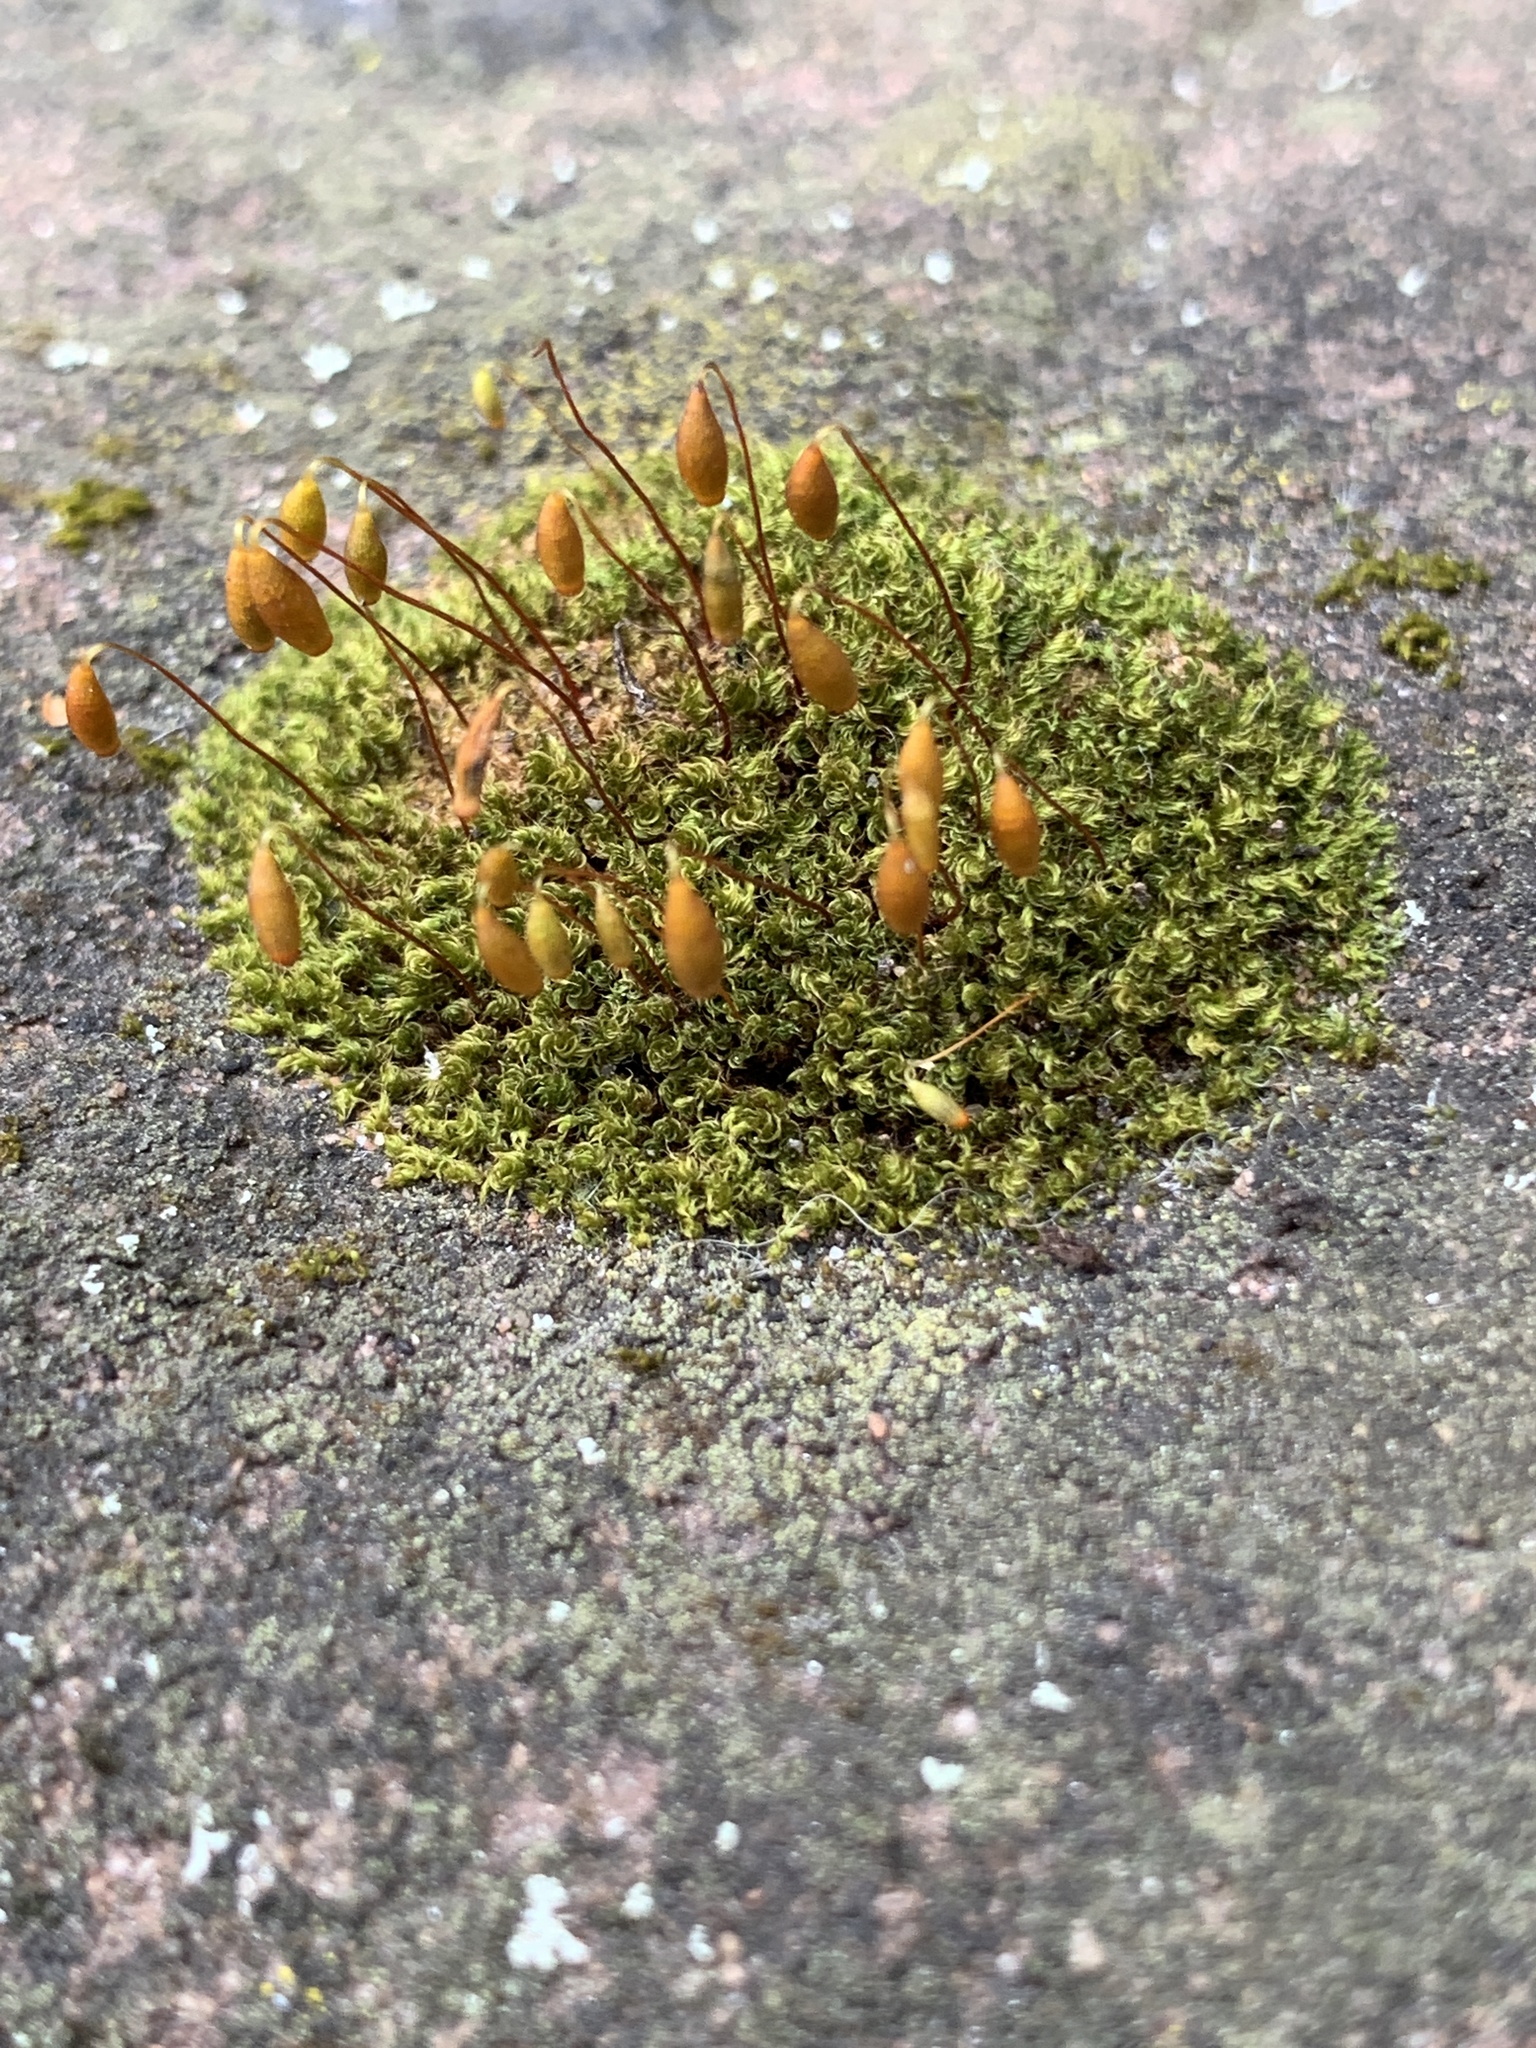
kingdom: Plantae
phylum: Bryophyta
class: Bryopsida
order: Bryales
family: Bryaceae
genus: Rosulabryum
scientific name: Rosulabryum capillare
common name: Capillary thread-moss
